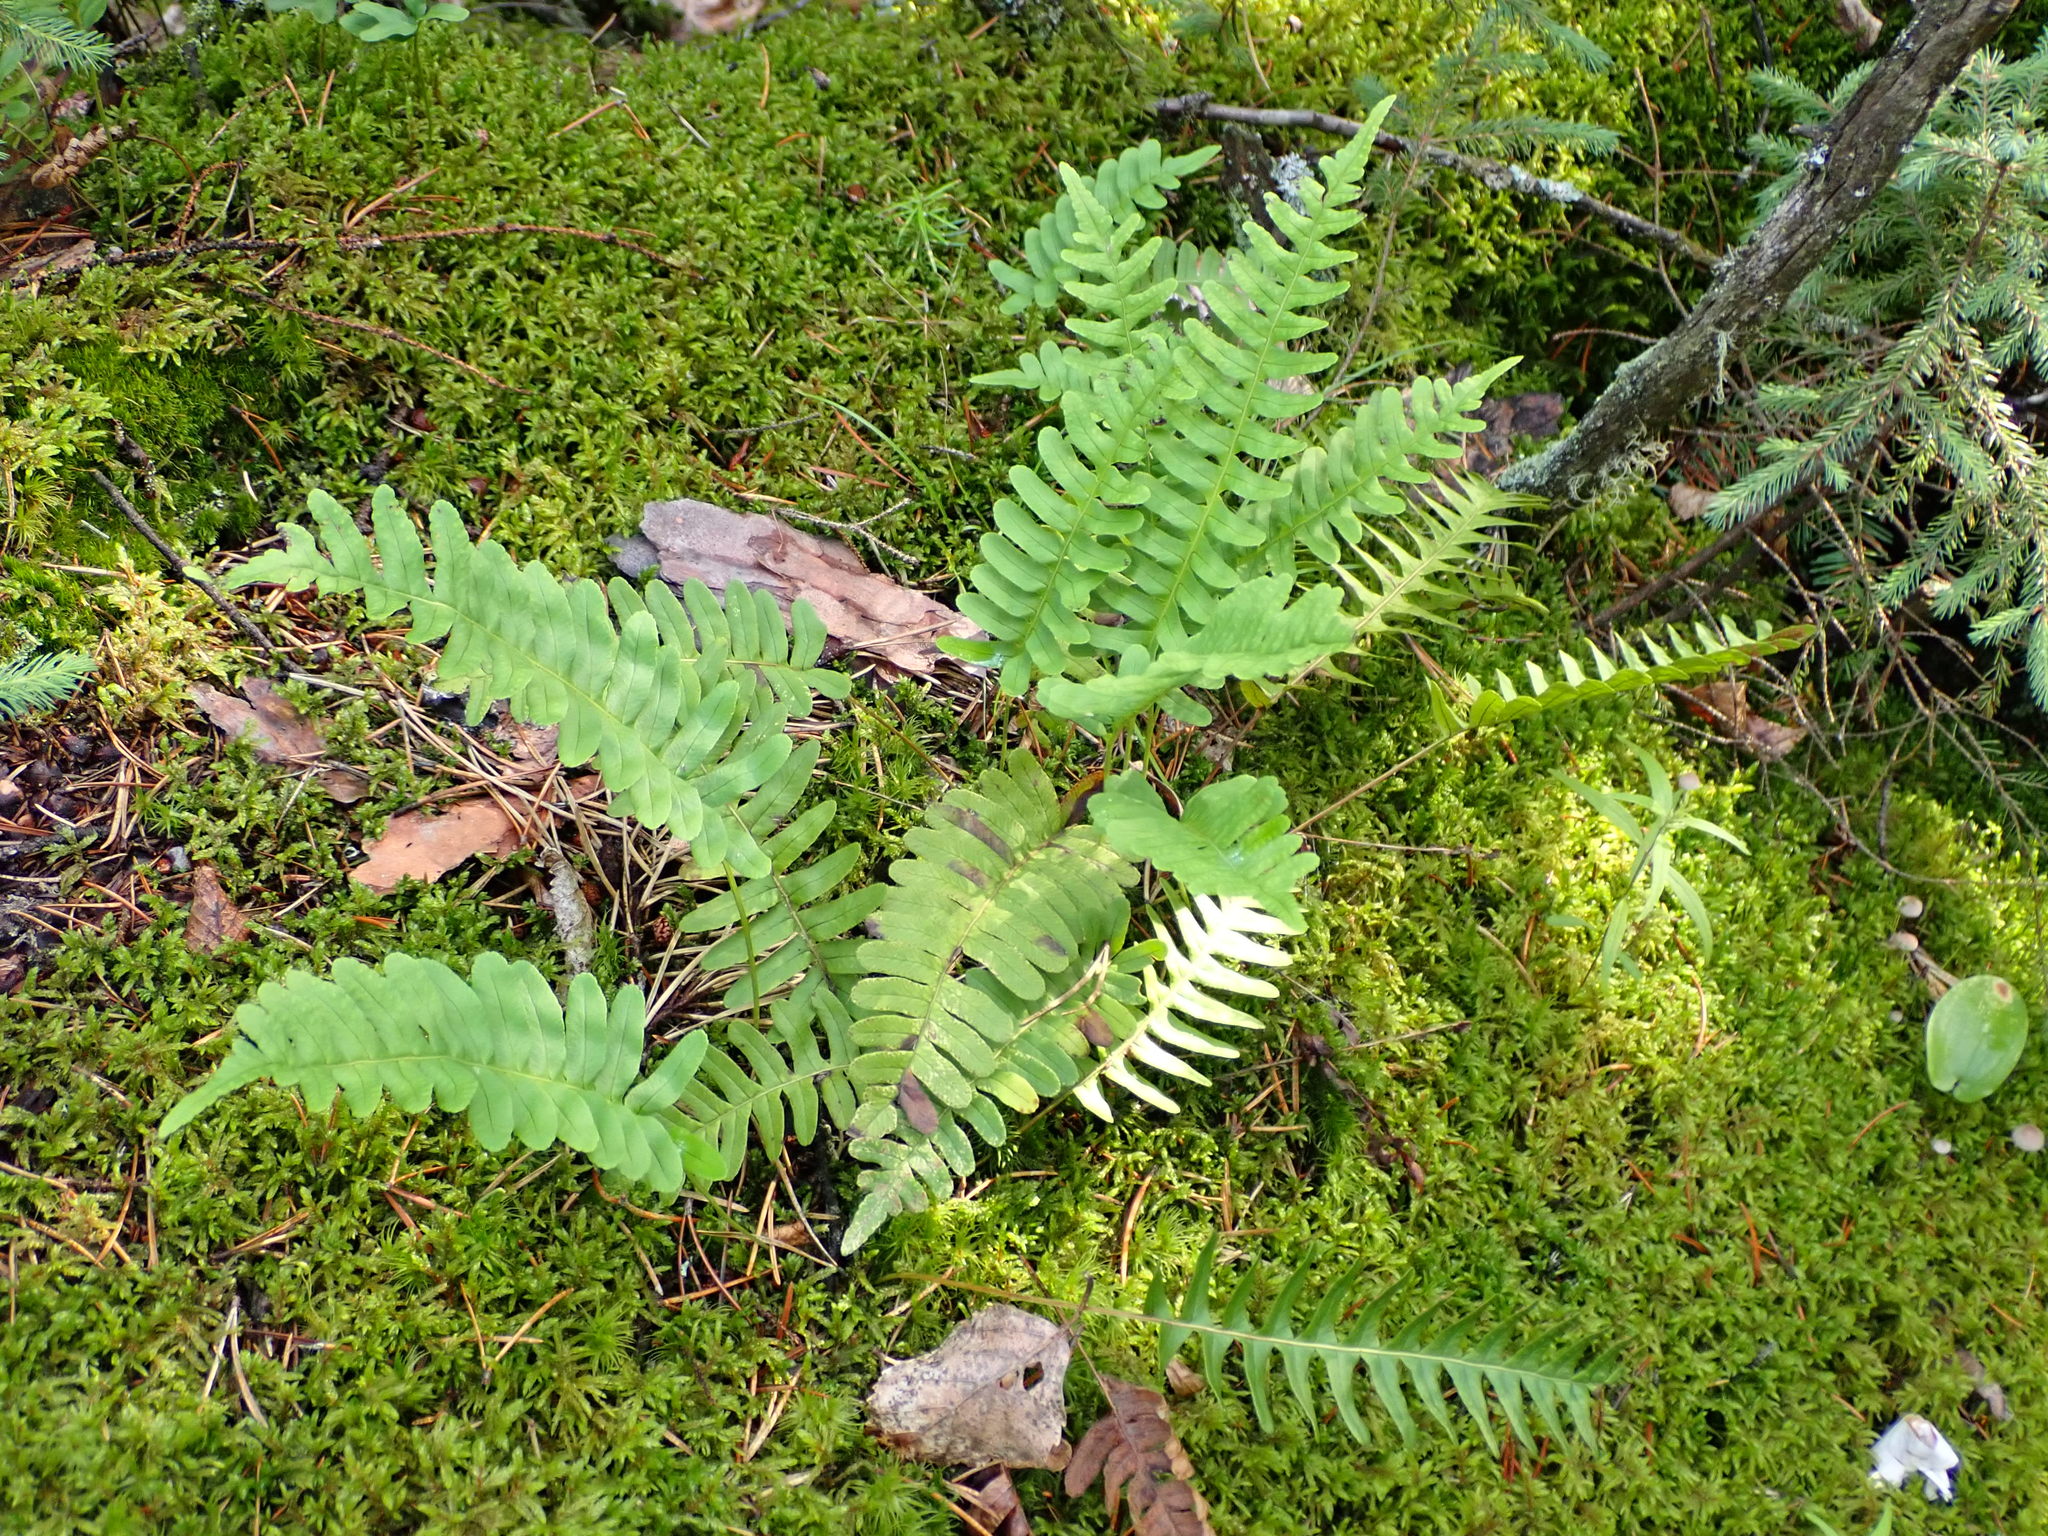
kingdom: Plantae
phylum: Tracheophyta
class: Polypodiopsida
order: Polypodiales
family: Polypodiaceae
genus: Polypodium
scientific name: Polypodium virginianum
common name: American wall fern
